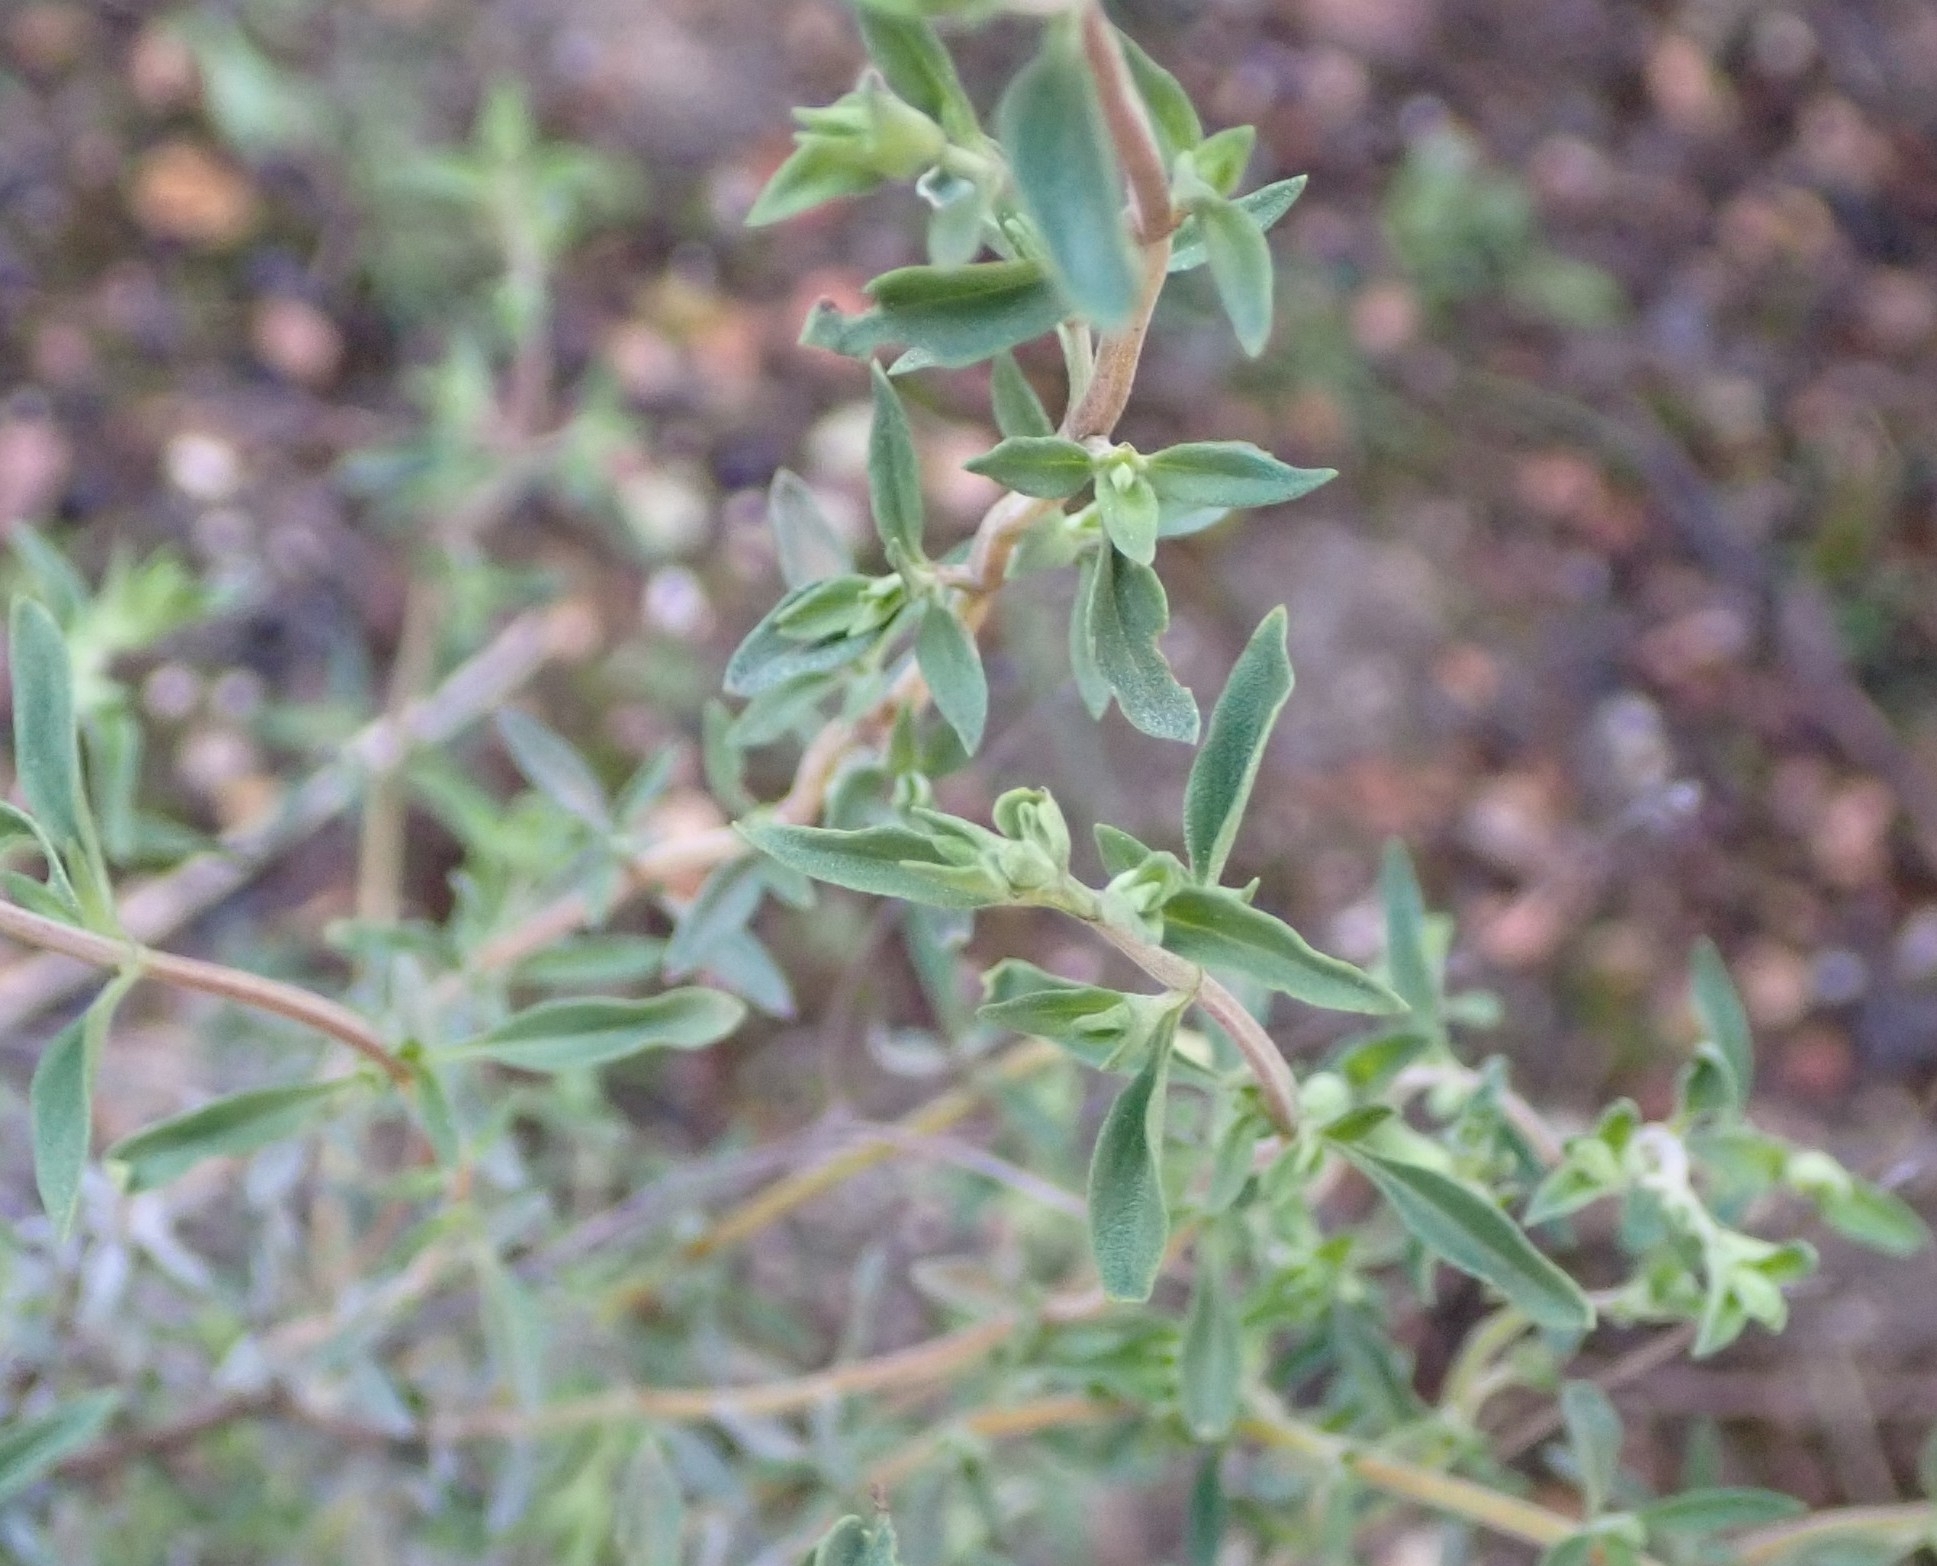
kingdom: Plantae
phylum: Tracheophyta
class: Magnoliopsida
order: Lamiales
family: Lamiaceae
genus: Thymus
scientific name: Thymus mastichina
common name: Mastic thyme
